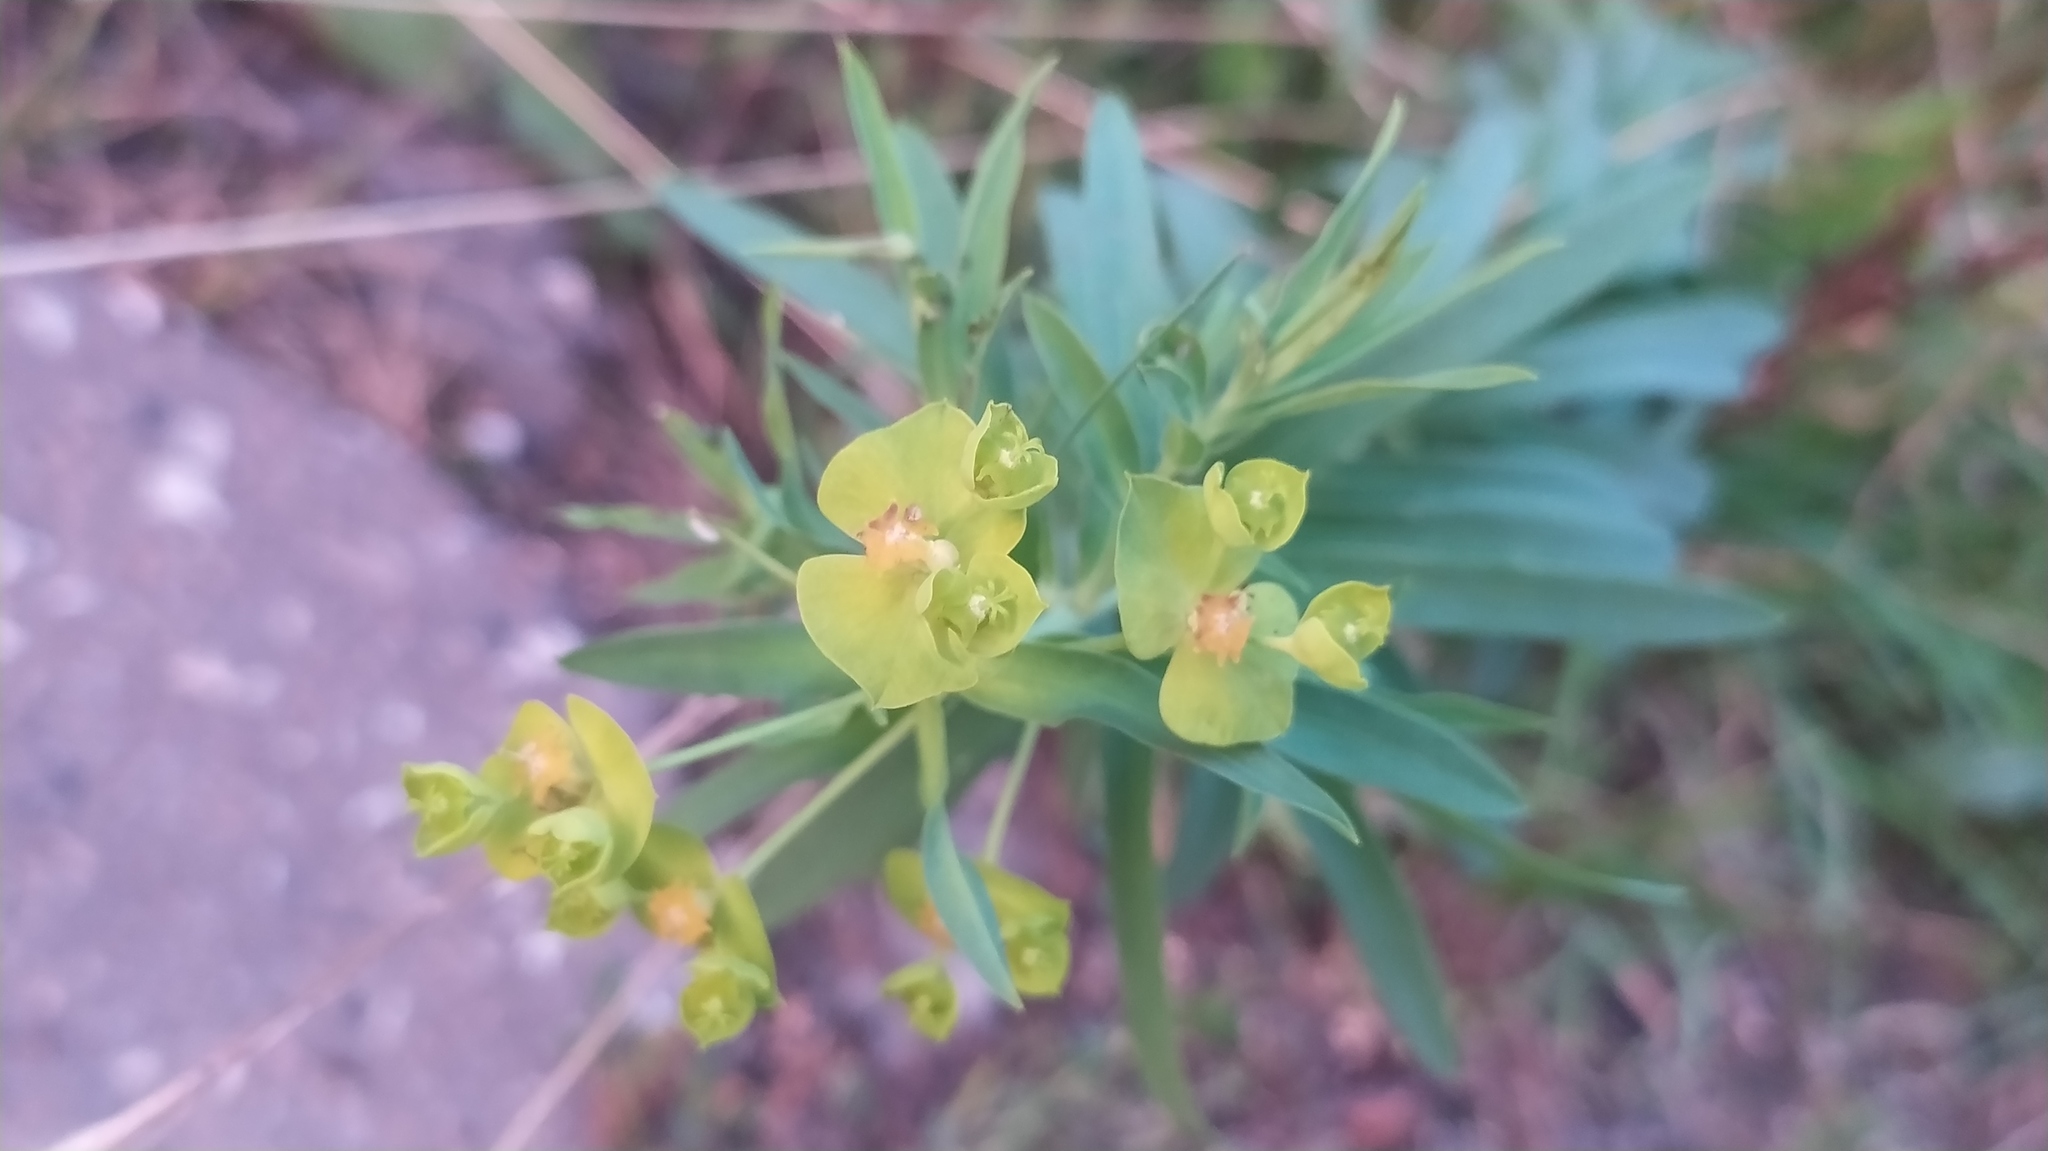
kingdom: Plantae
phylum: Tracheophyta
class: Magnoliopsida
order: Malpighiales
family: Euphorbiaceae
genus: Euphorbia
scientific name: Euphorbia virgata
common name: Leafy spurge
